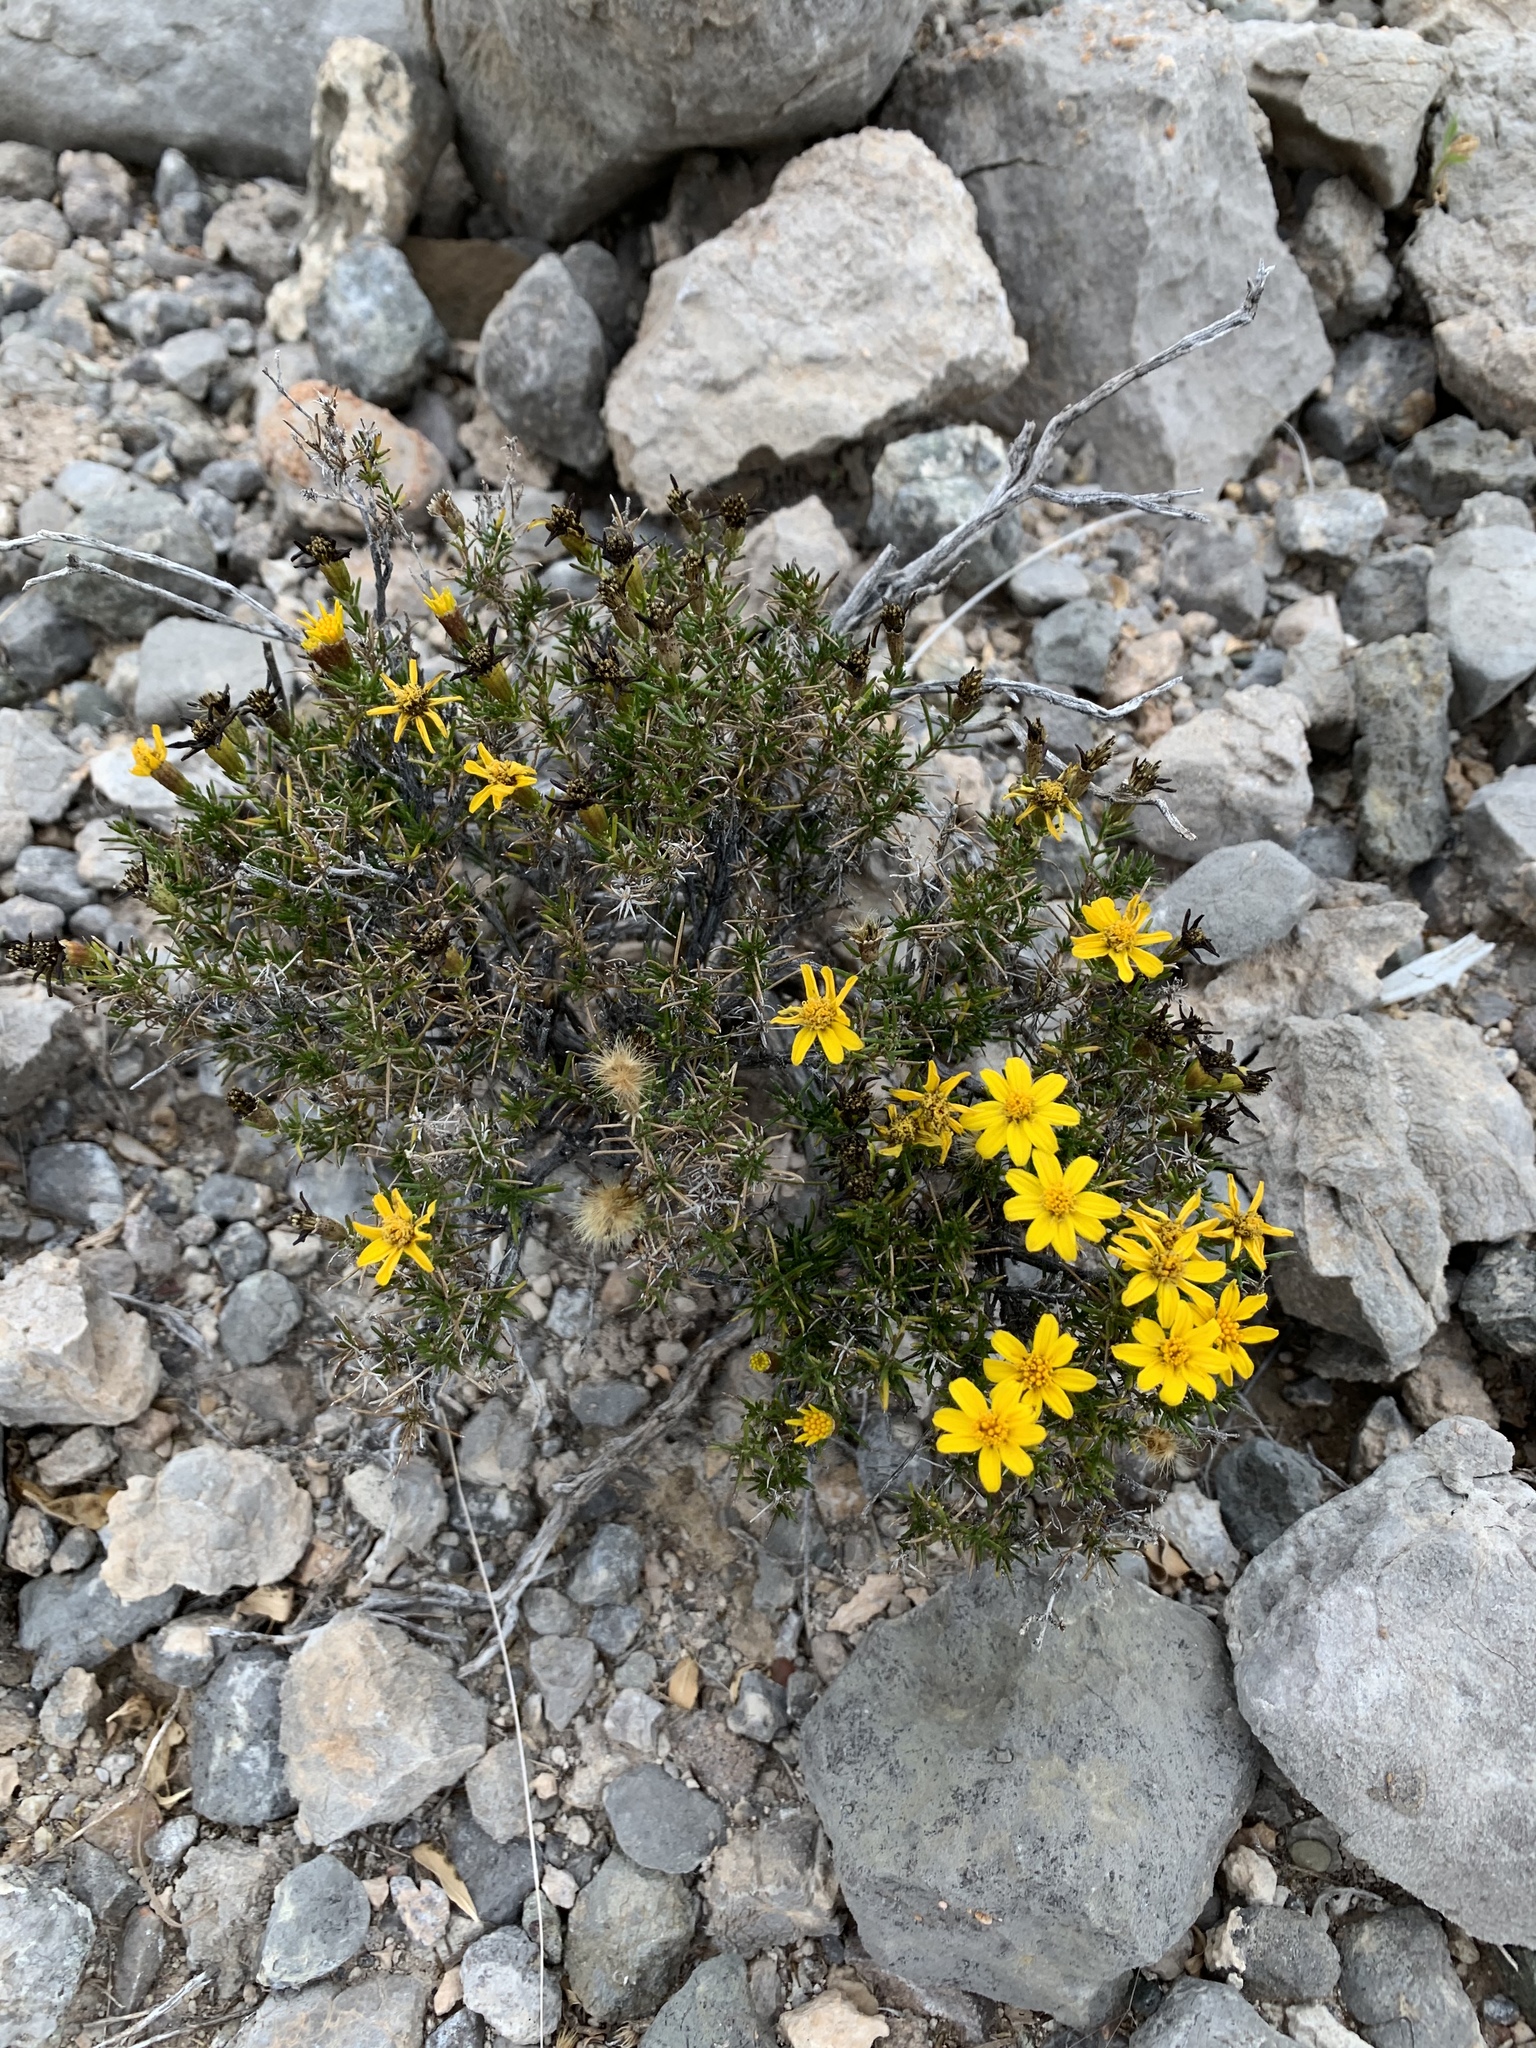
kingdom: Plantae
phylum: Tracheophyta
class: Magnoliopsida
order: Asterales
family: Asteraceae
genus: Thymophylla
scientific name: Thymophylla acerosa
